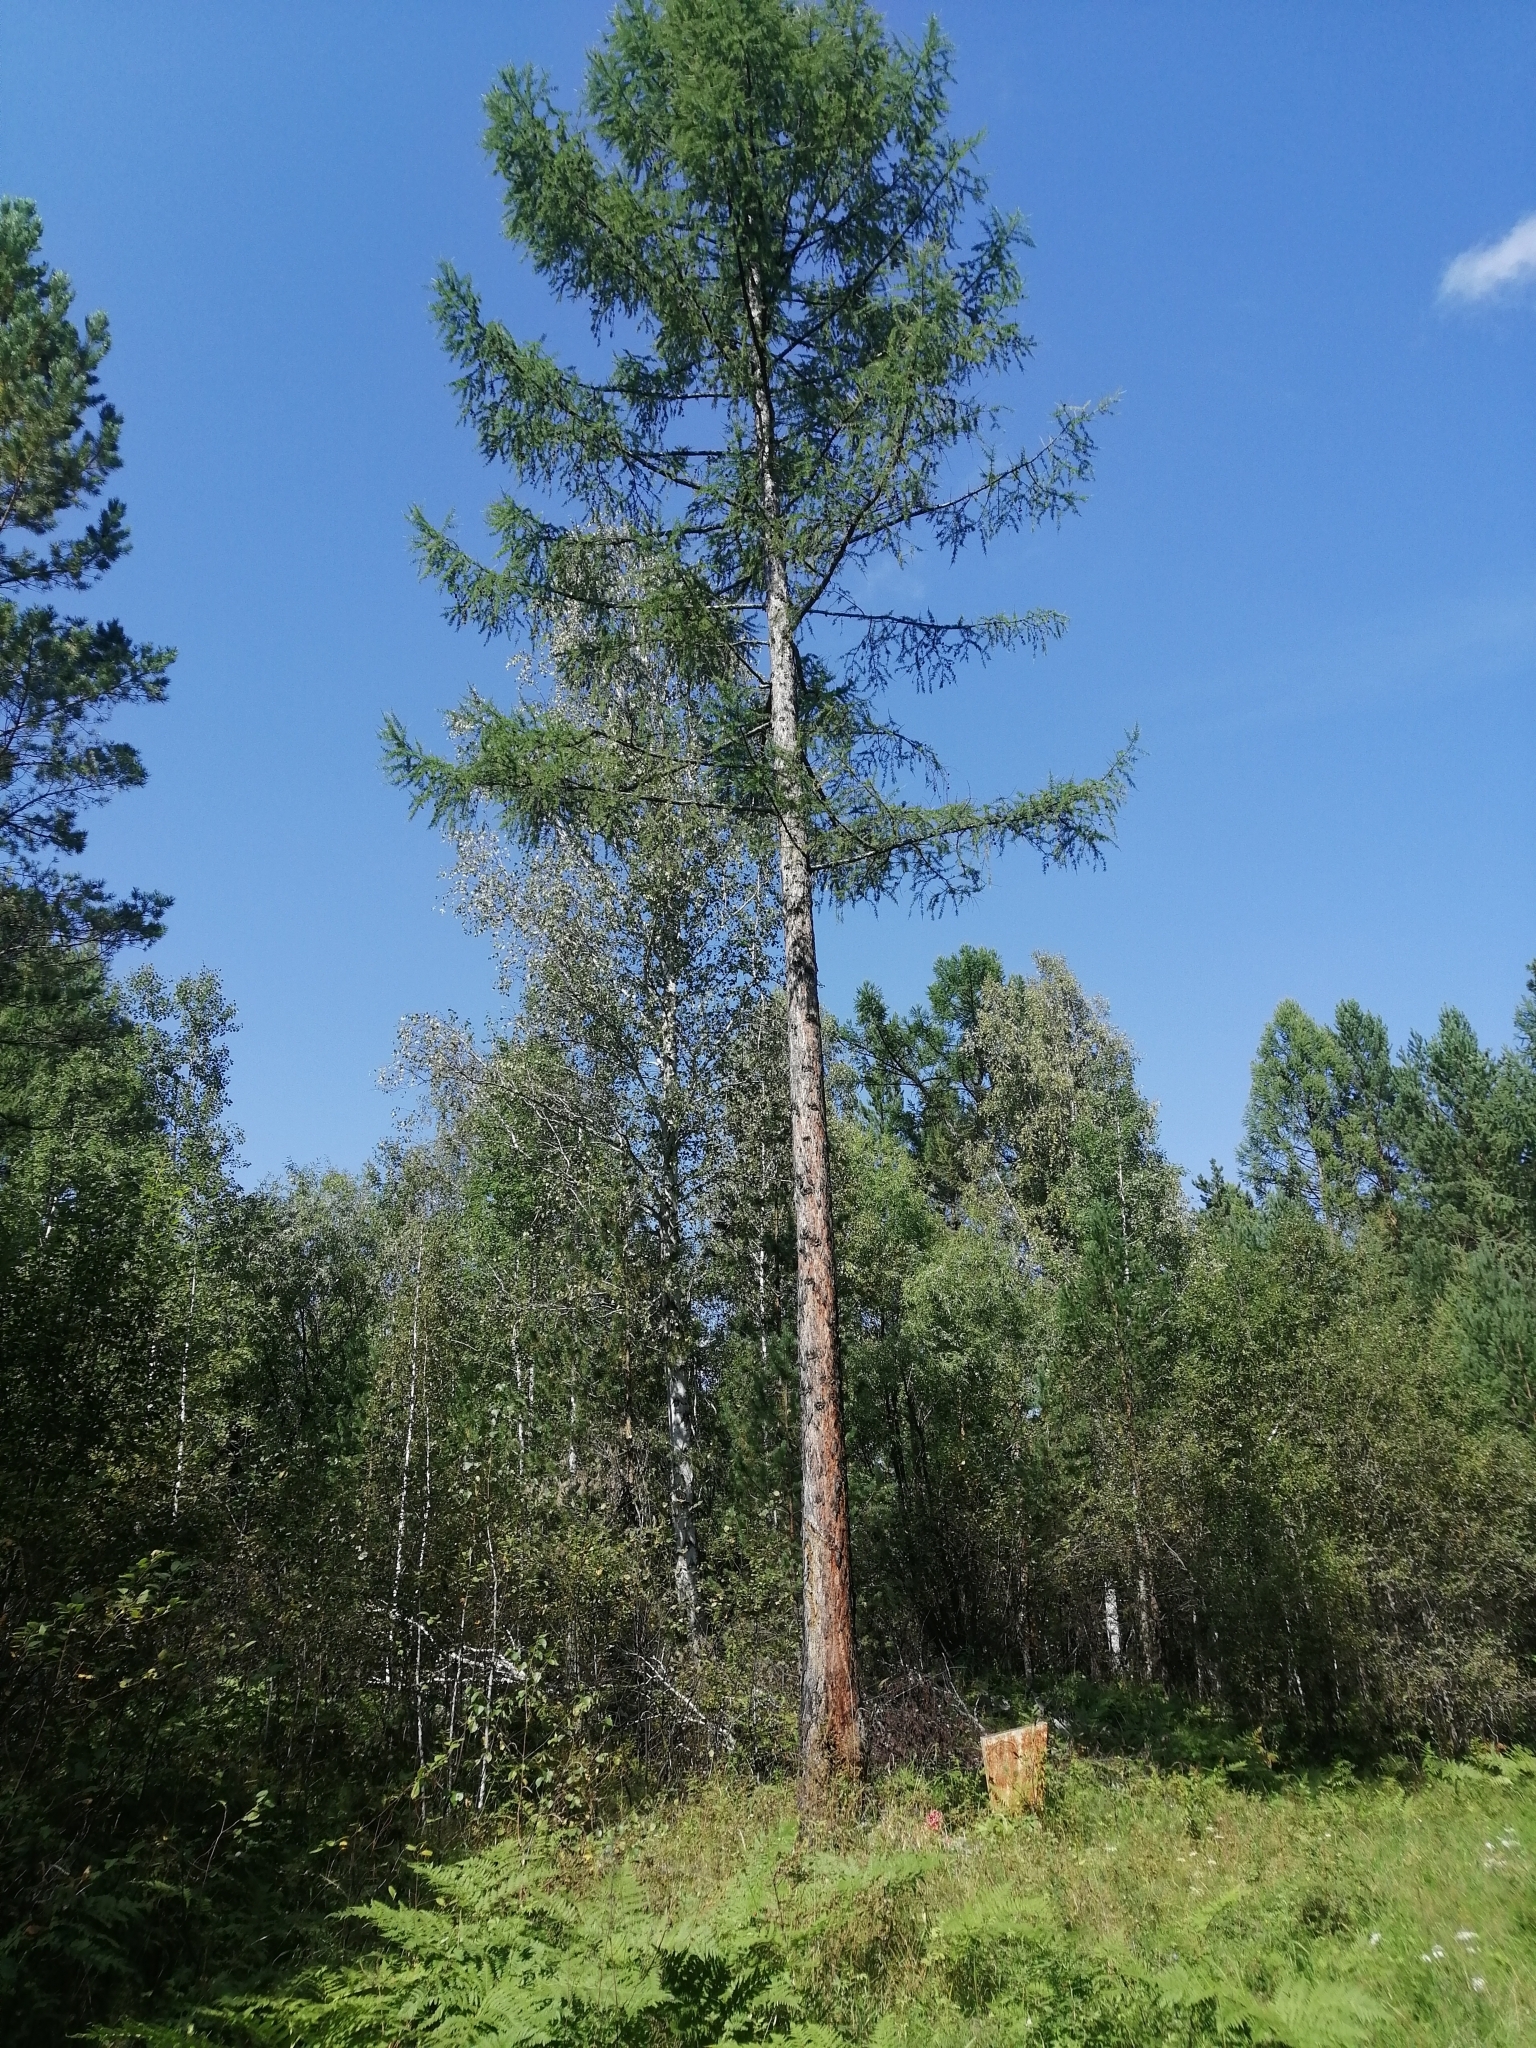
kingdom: Plantae
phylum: Tracheophyta
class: Pinopsida
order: Pinales
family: Pinaceae
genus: Larix
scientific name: Larix sibirica
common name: Siberian larch
